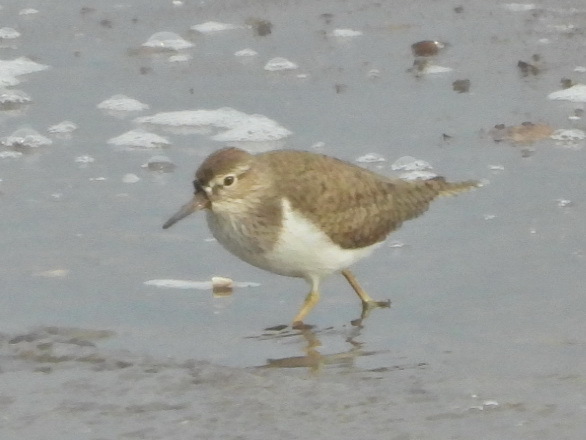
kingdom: Animalia
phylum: Chordata
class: Aves
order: Charadriiformes
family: Scolopacidae
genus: Actitis
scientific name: Actitis hypoleucos
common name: Common sandpiper
